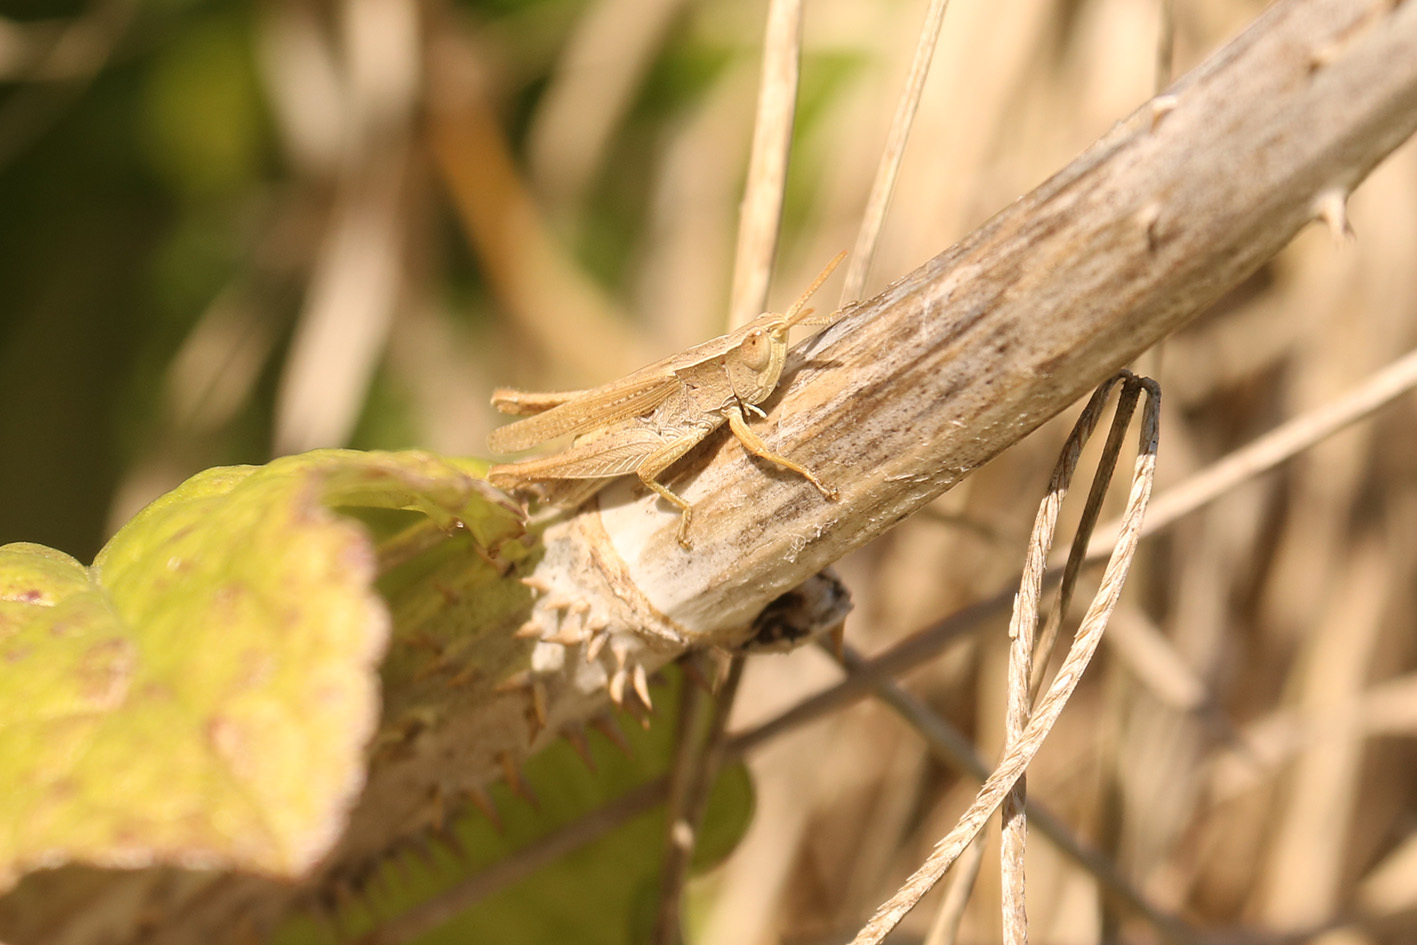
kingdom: Animalia
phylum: Arthropoda
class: Insecta
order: Orthoptera
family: Acrididae
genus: Laplatacris
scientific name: Laplatacris dispar
